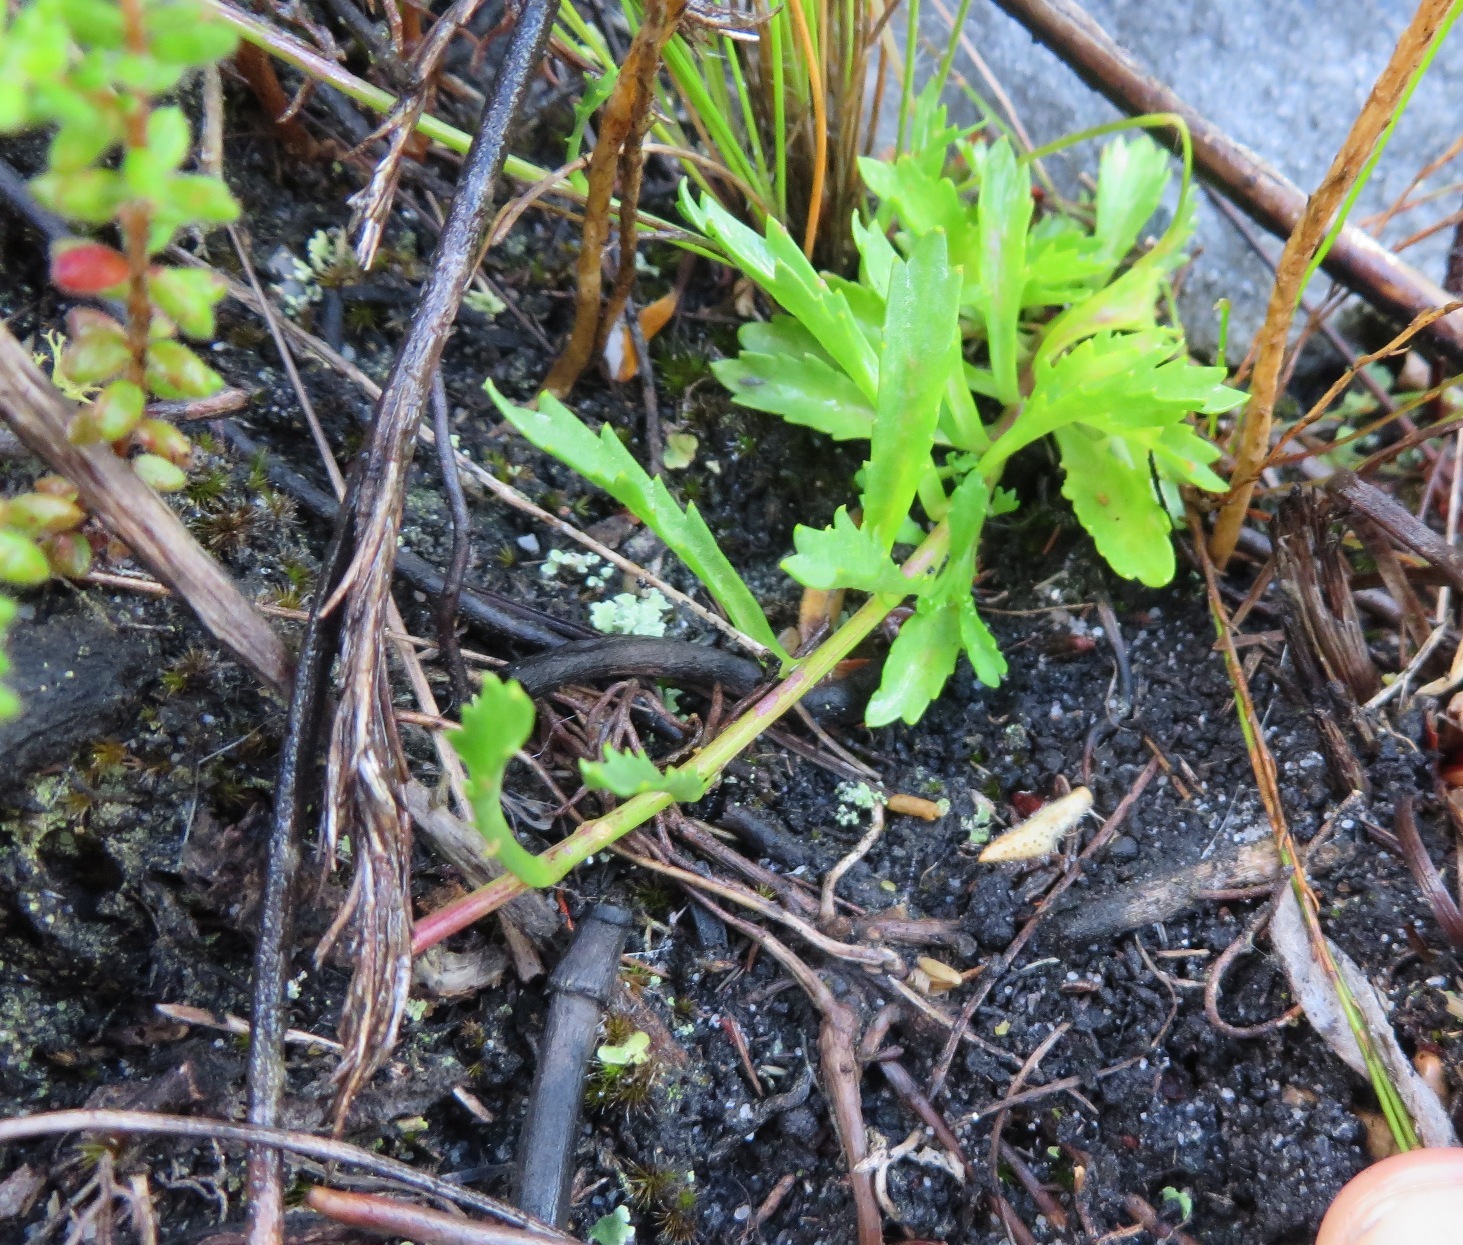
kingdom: Plantae
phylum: Tracheophyta
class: Magnoliopsida
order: Asterales
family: Campanulaceae
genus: Lobelia
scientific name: Lobelia stenosiphon
